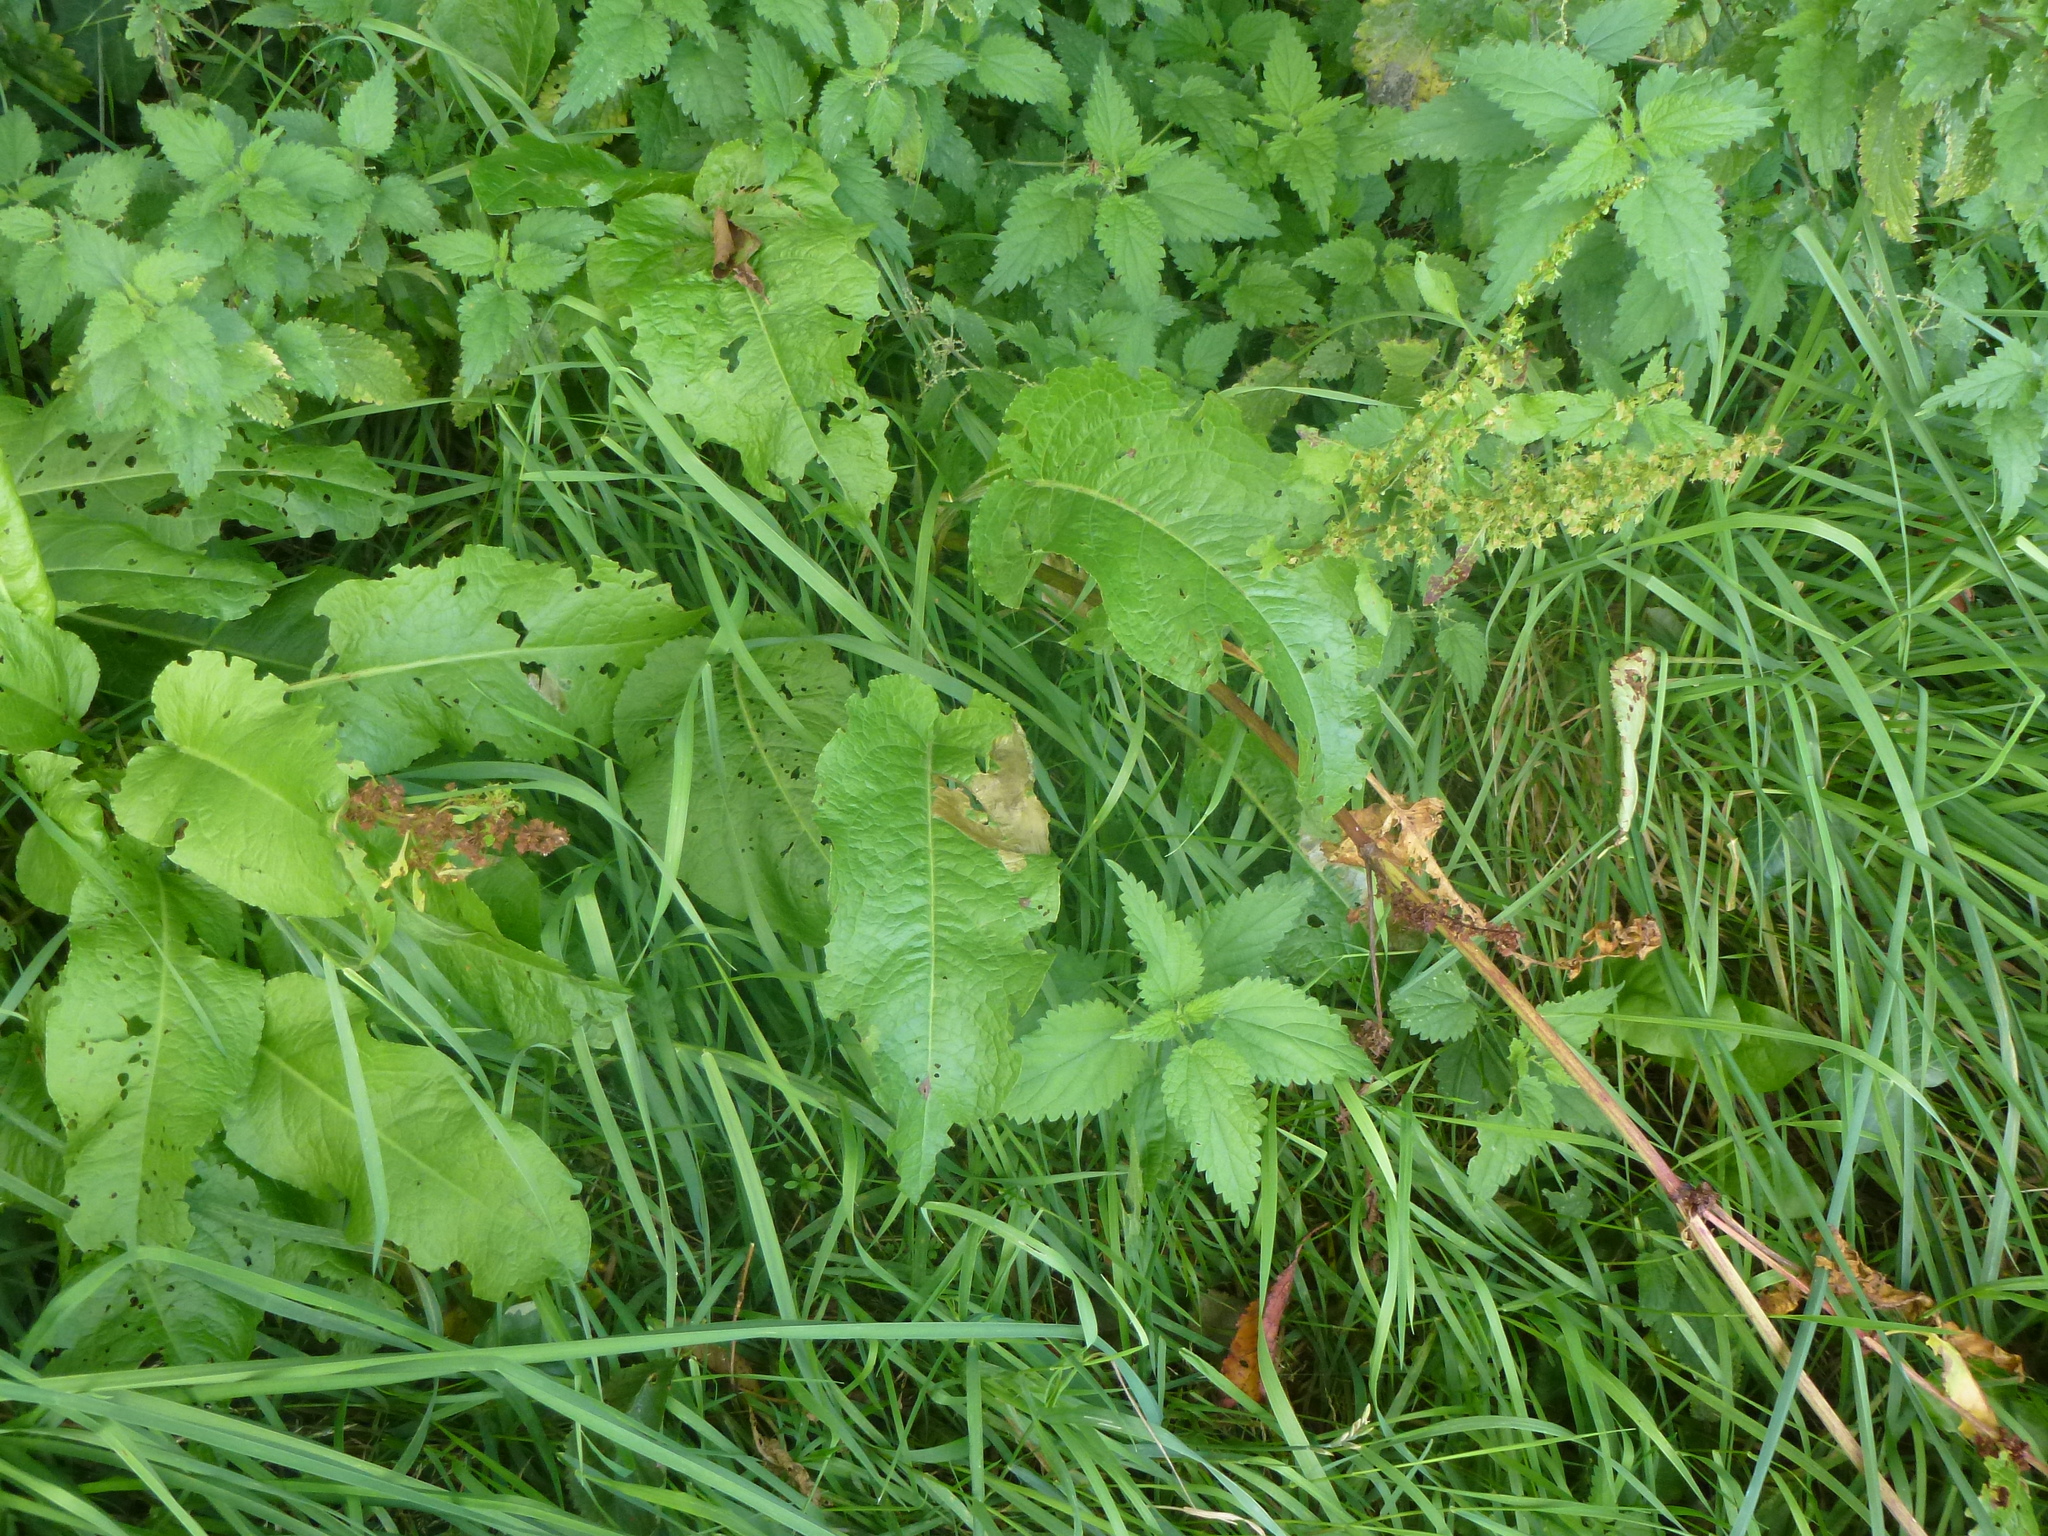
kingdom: Plantae
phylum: Tracheophyta
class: Magnoliopsida
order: Caryophyllales
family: Polygonaceae
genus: Rumex
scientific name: Rumex obtusifolius
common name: Bitter dock
